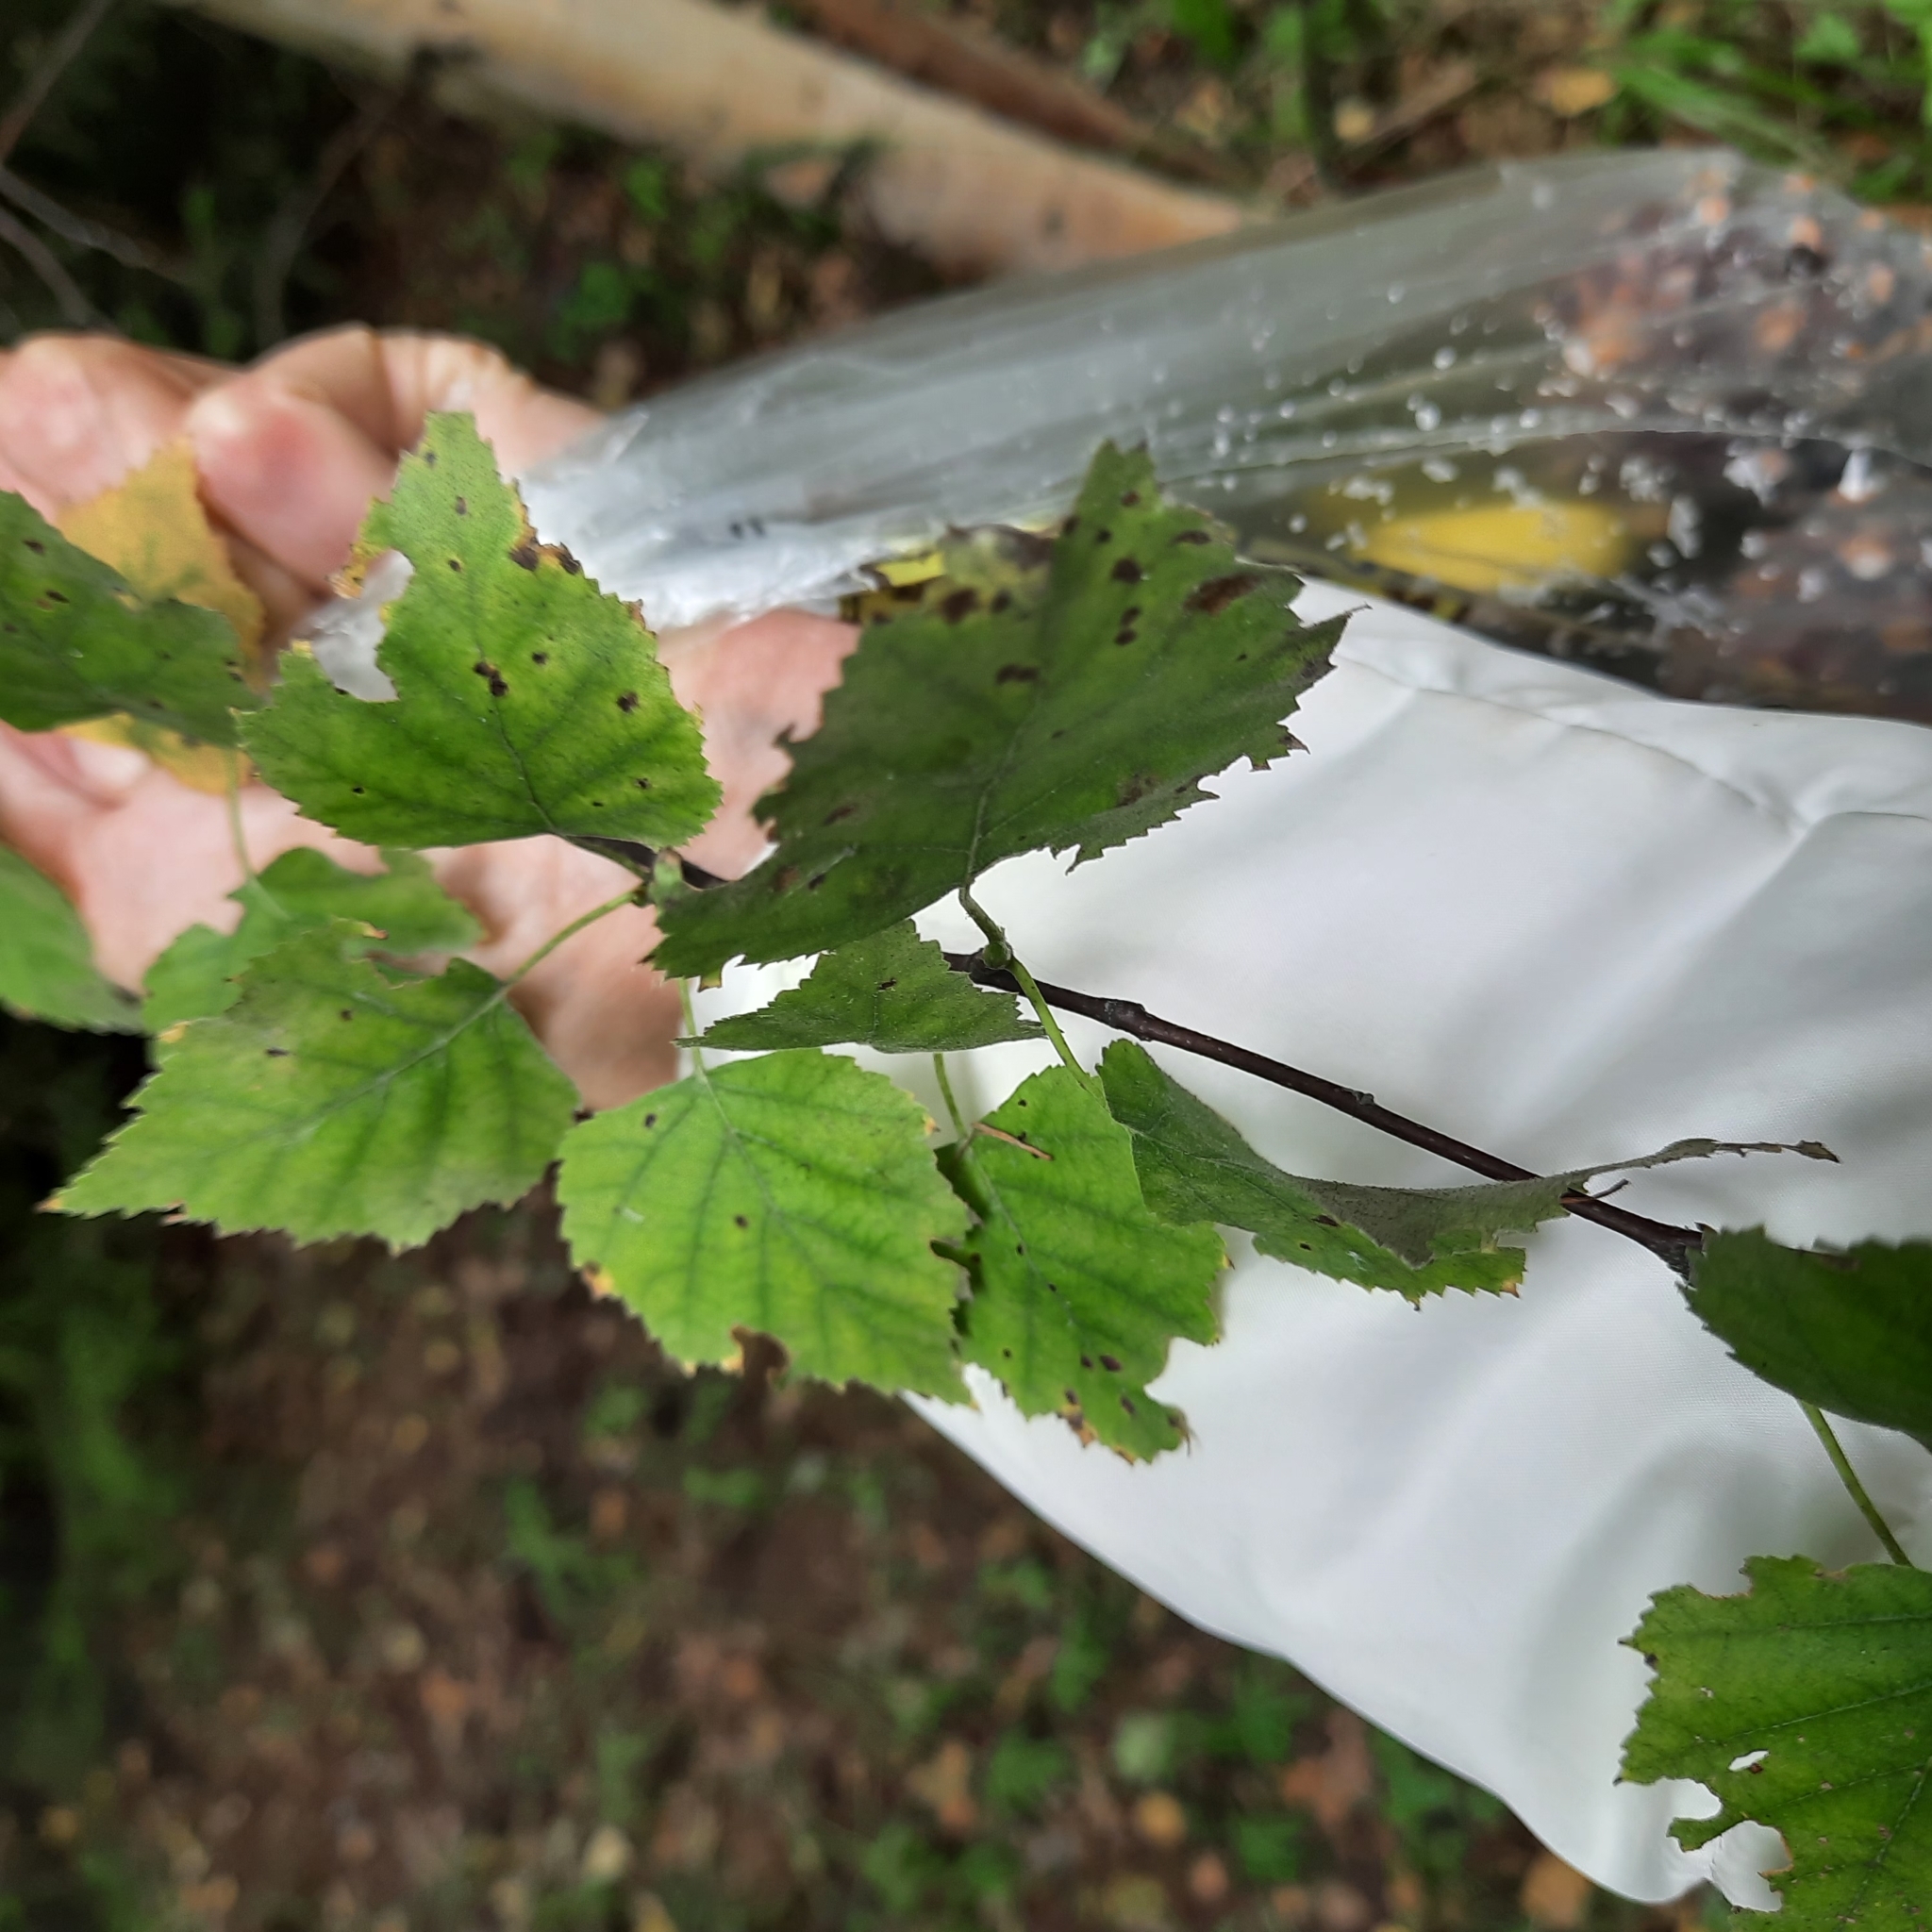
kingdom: Plantae
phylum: Tracheophyta
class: Magnoliopsida
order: Fagales
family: Betulaceae
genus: Betula
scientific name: Betula pendula
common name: Silver birch
